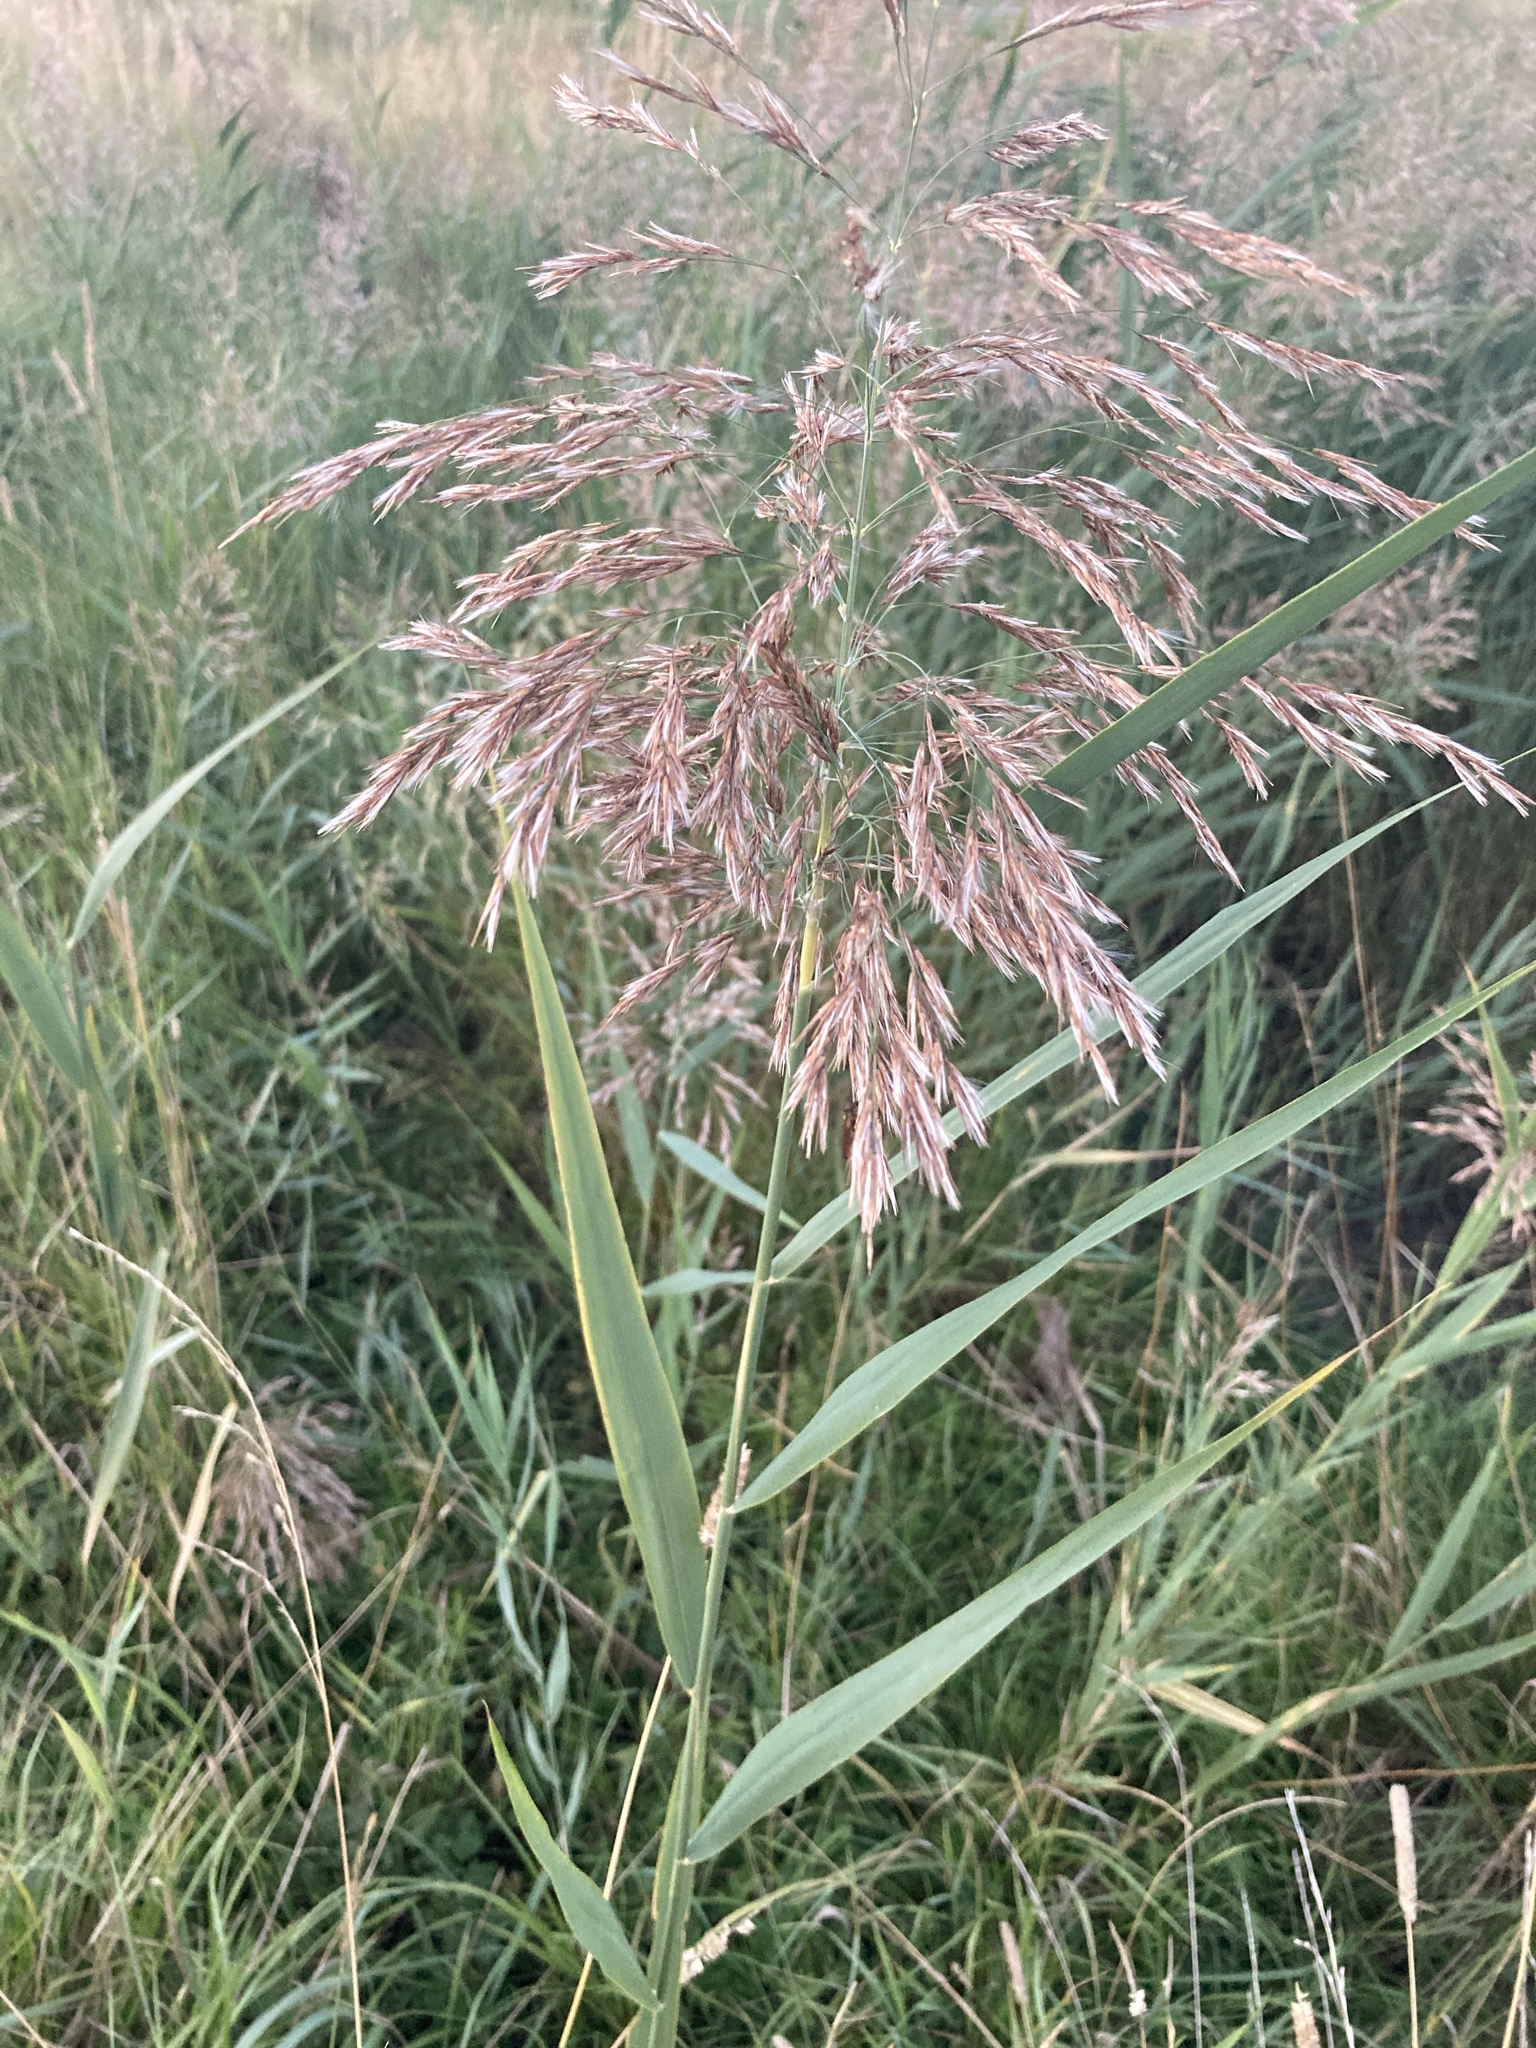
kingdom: Plantae
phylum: Tracheophyta
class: Liliopsida
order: Poales
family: Poaceae
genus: Phragmites
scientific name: Phragmites australis
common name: Common reed
